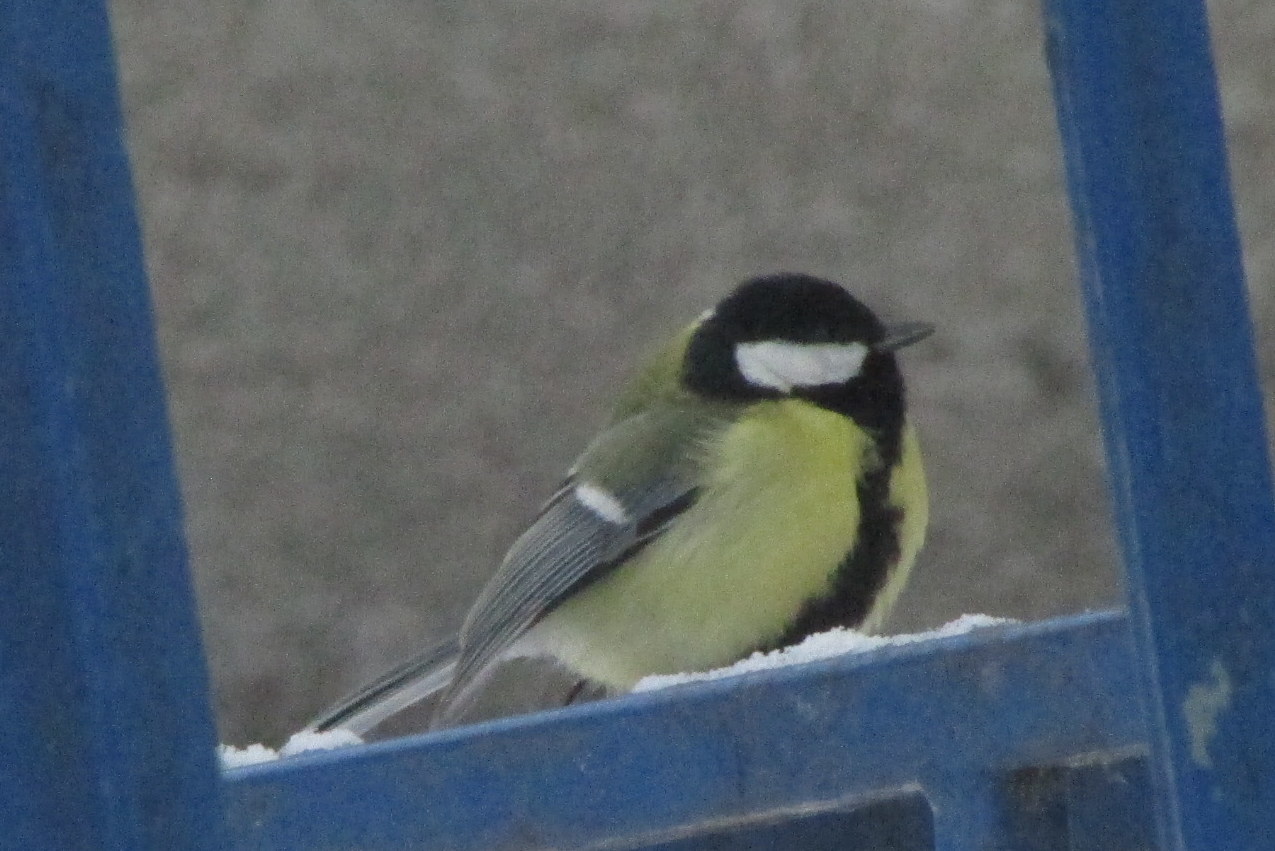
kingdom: Animalia
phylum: Chordata
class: Aves
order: Passeriformes
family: Paridae
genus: Parus
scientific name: Parus major
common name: Great tit
